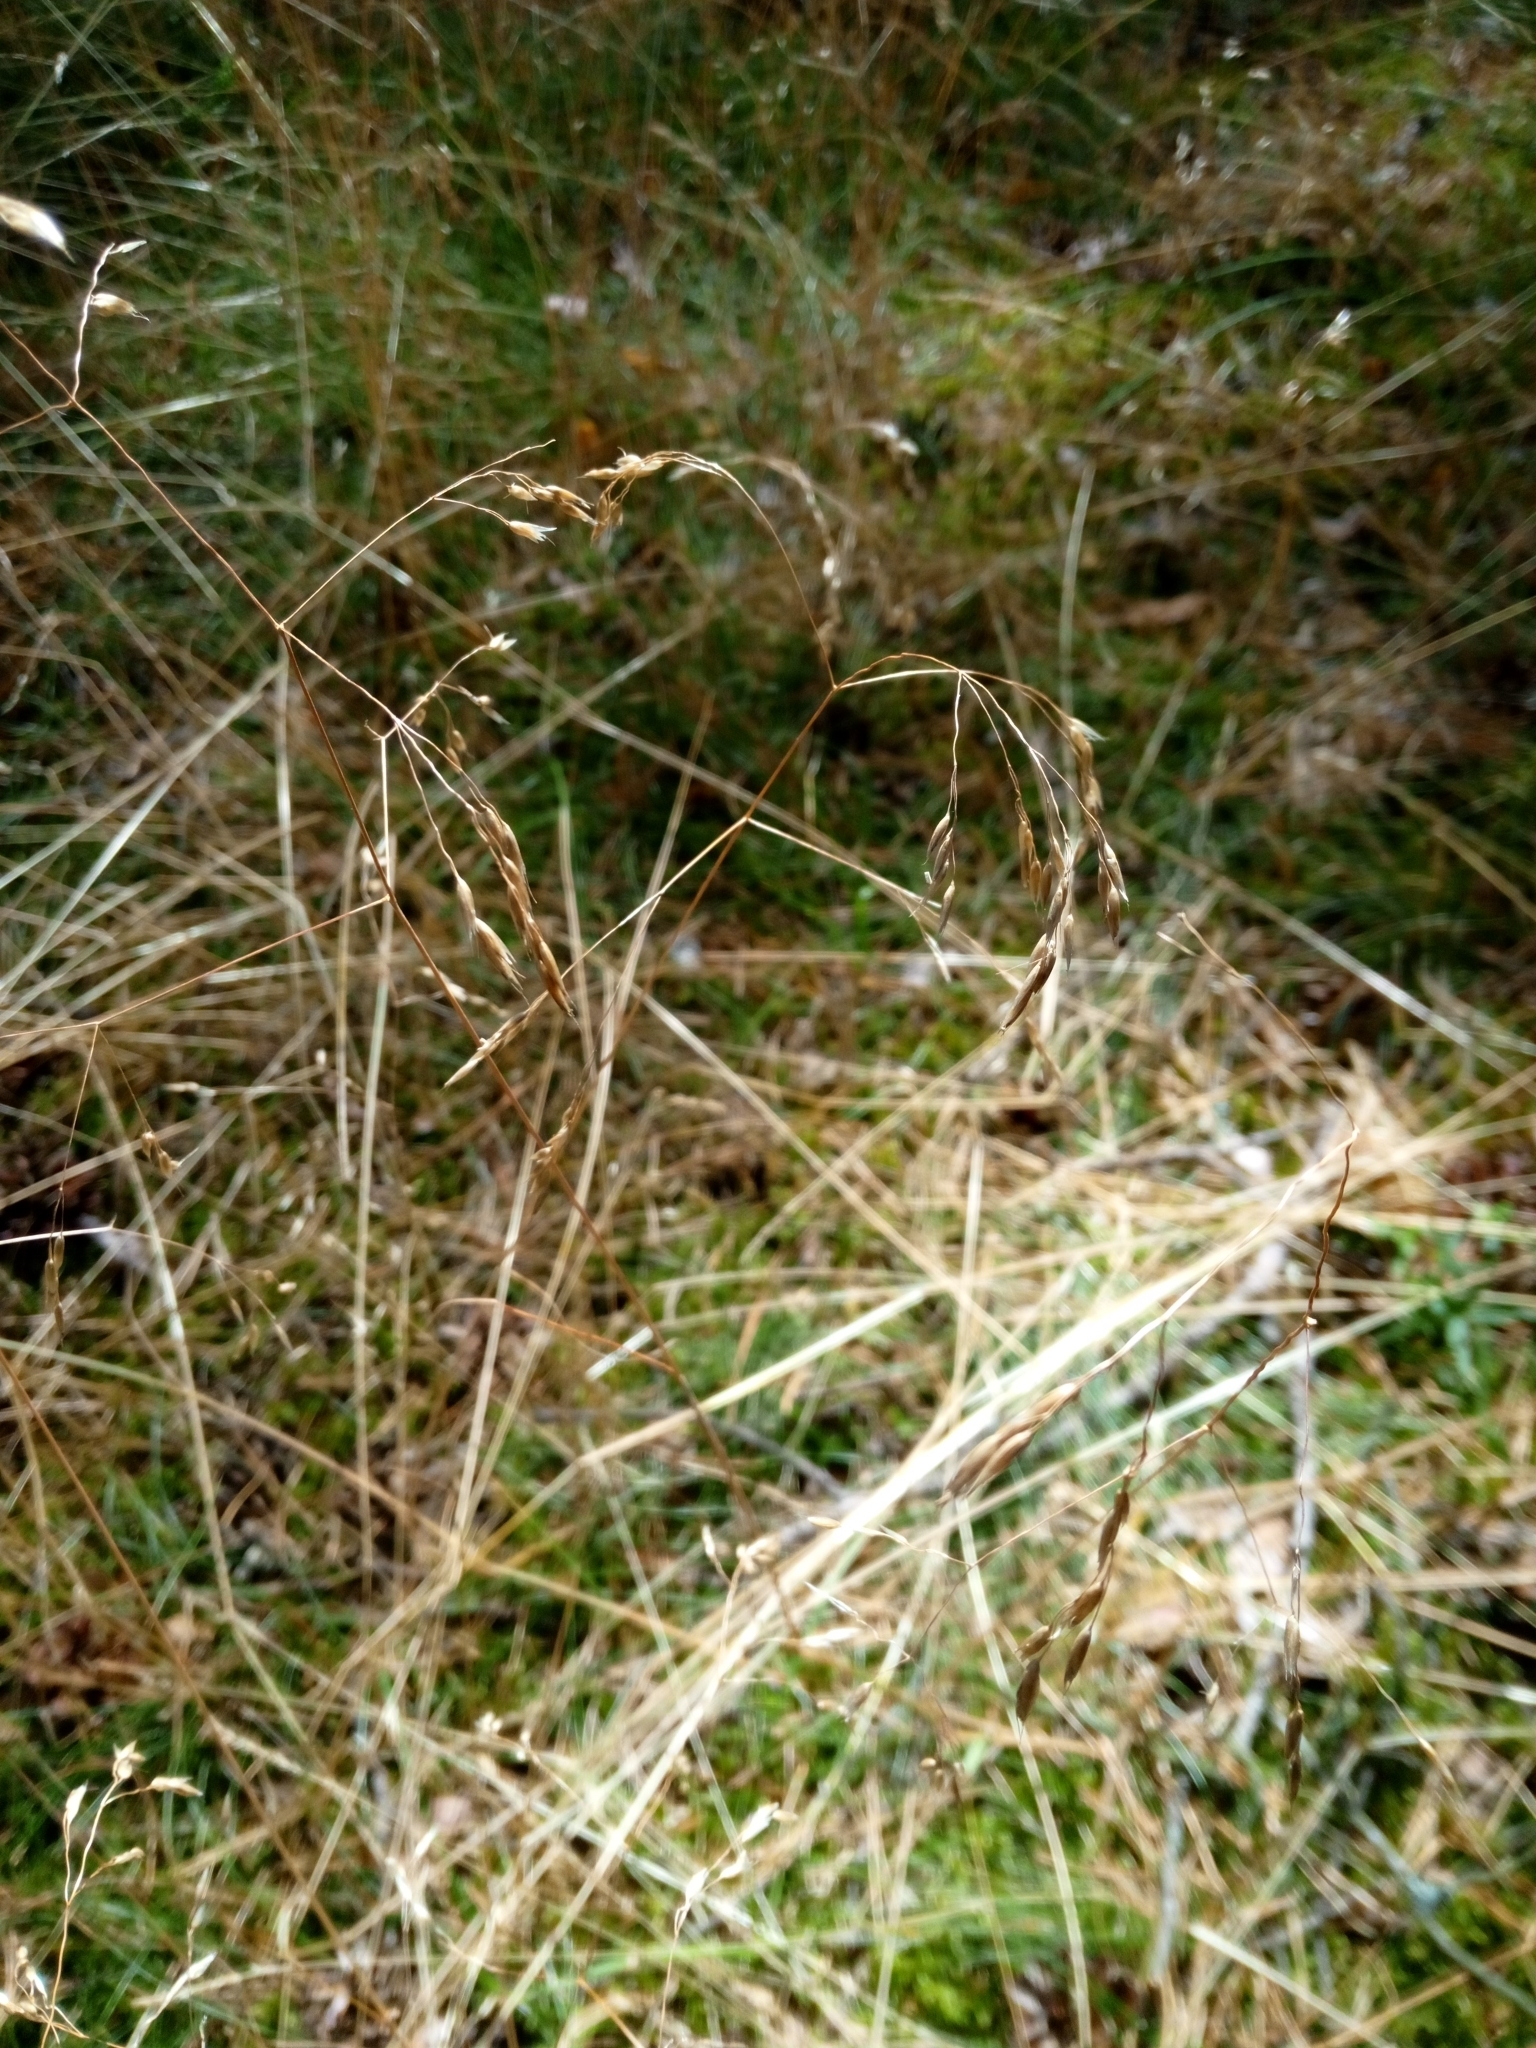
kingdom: Plantae
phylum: Tracheophyta
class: Liliopsida
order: Poales
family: Poaceae
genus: Avenella
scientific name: Avenella flexuosa
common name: Wavy hairgrass
